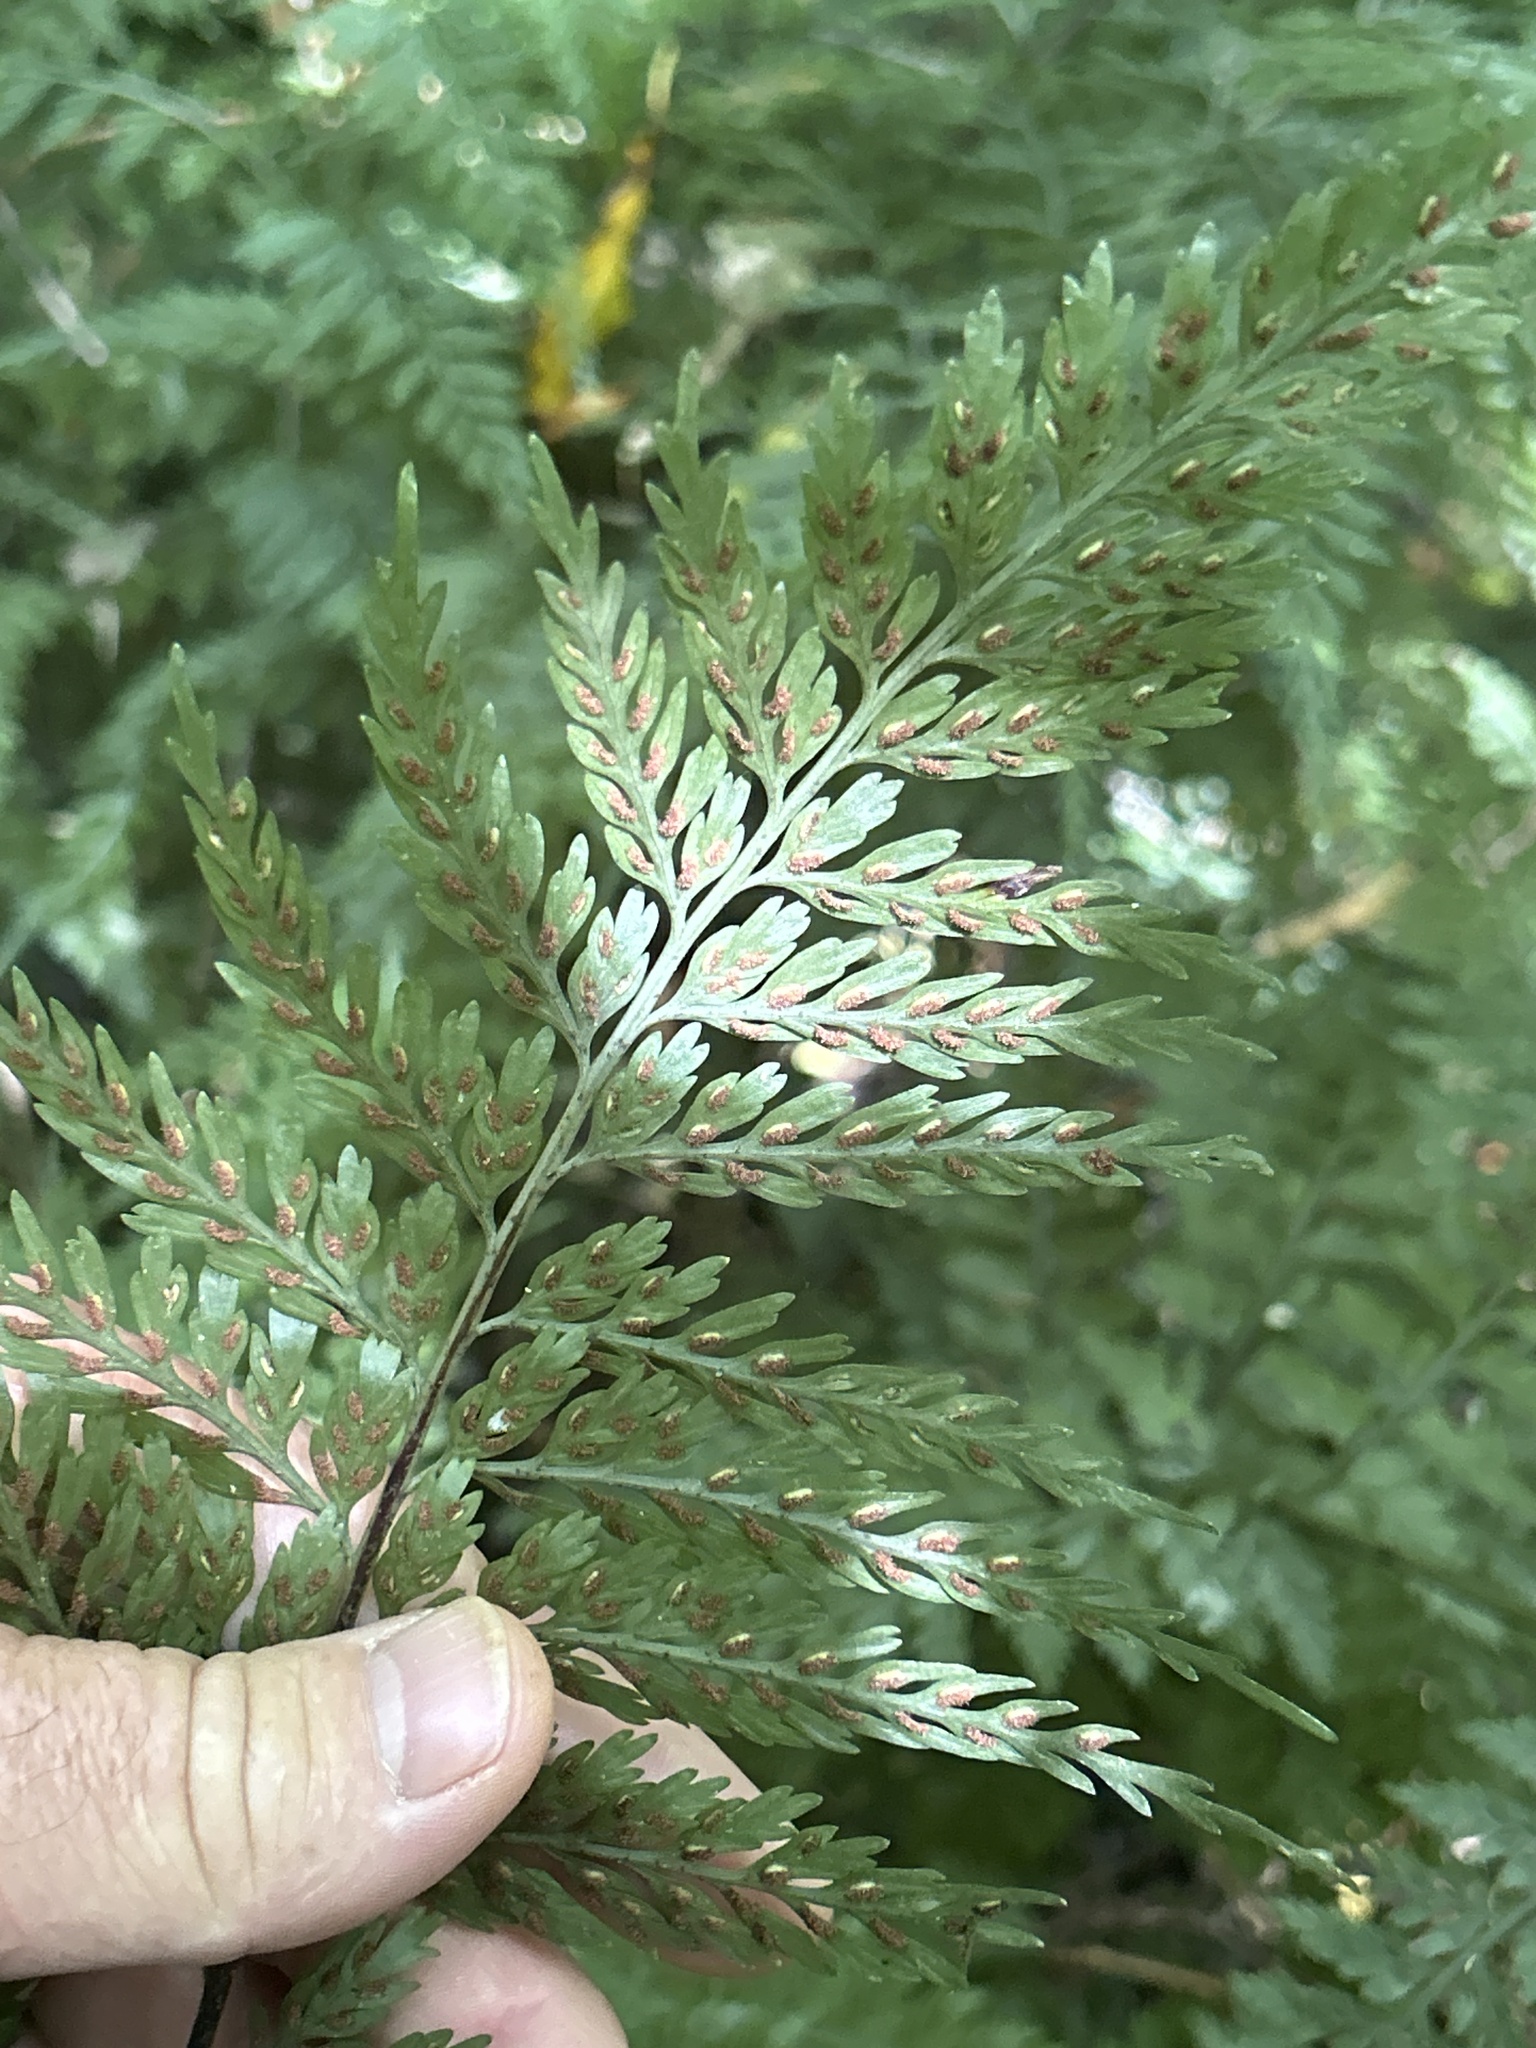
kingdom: Plantae
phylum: Tracheophyta
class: Polypodiopsida
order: Polypodiales
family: Aspleniaceae
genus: Asplenium
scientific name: Asplenium bulbiferum
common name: Mother fern
